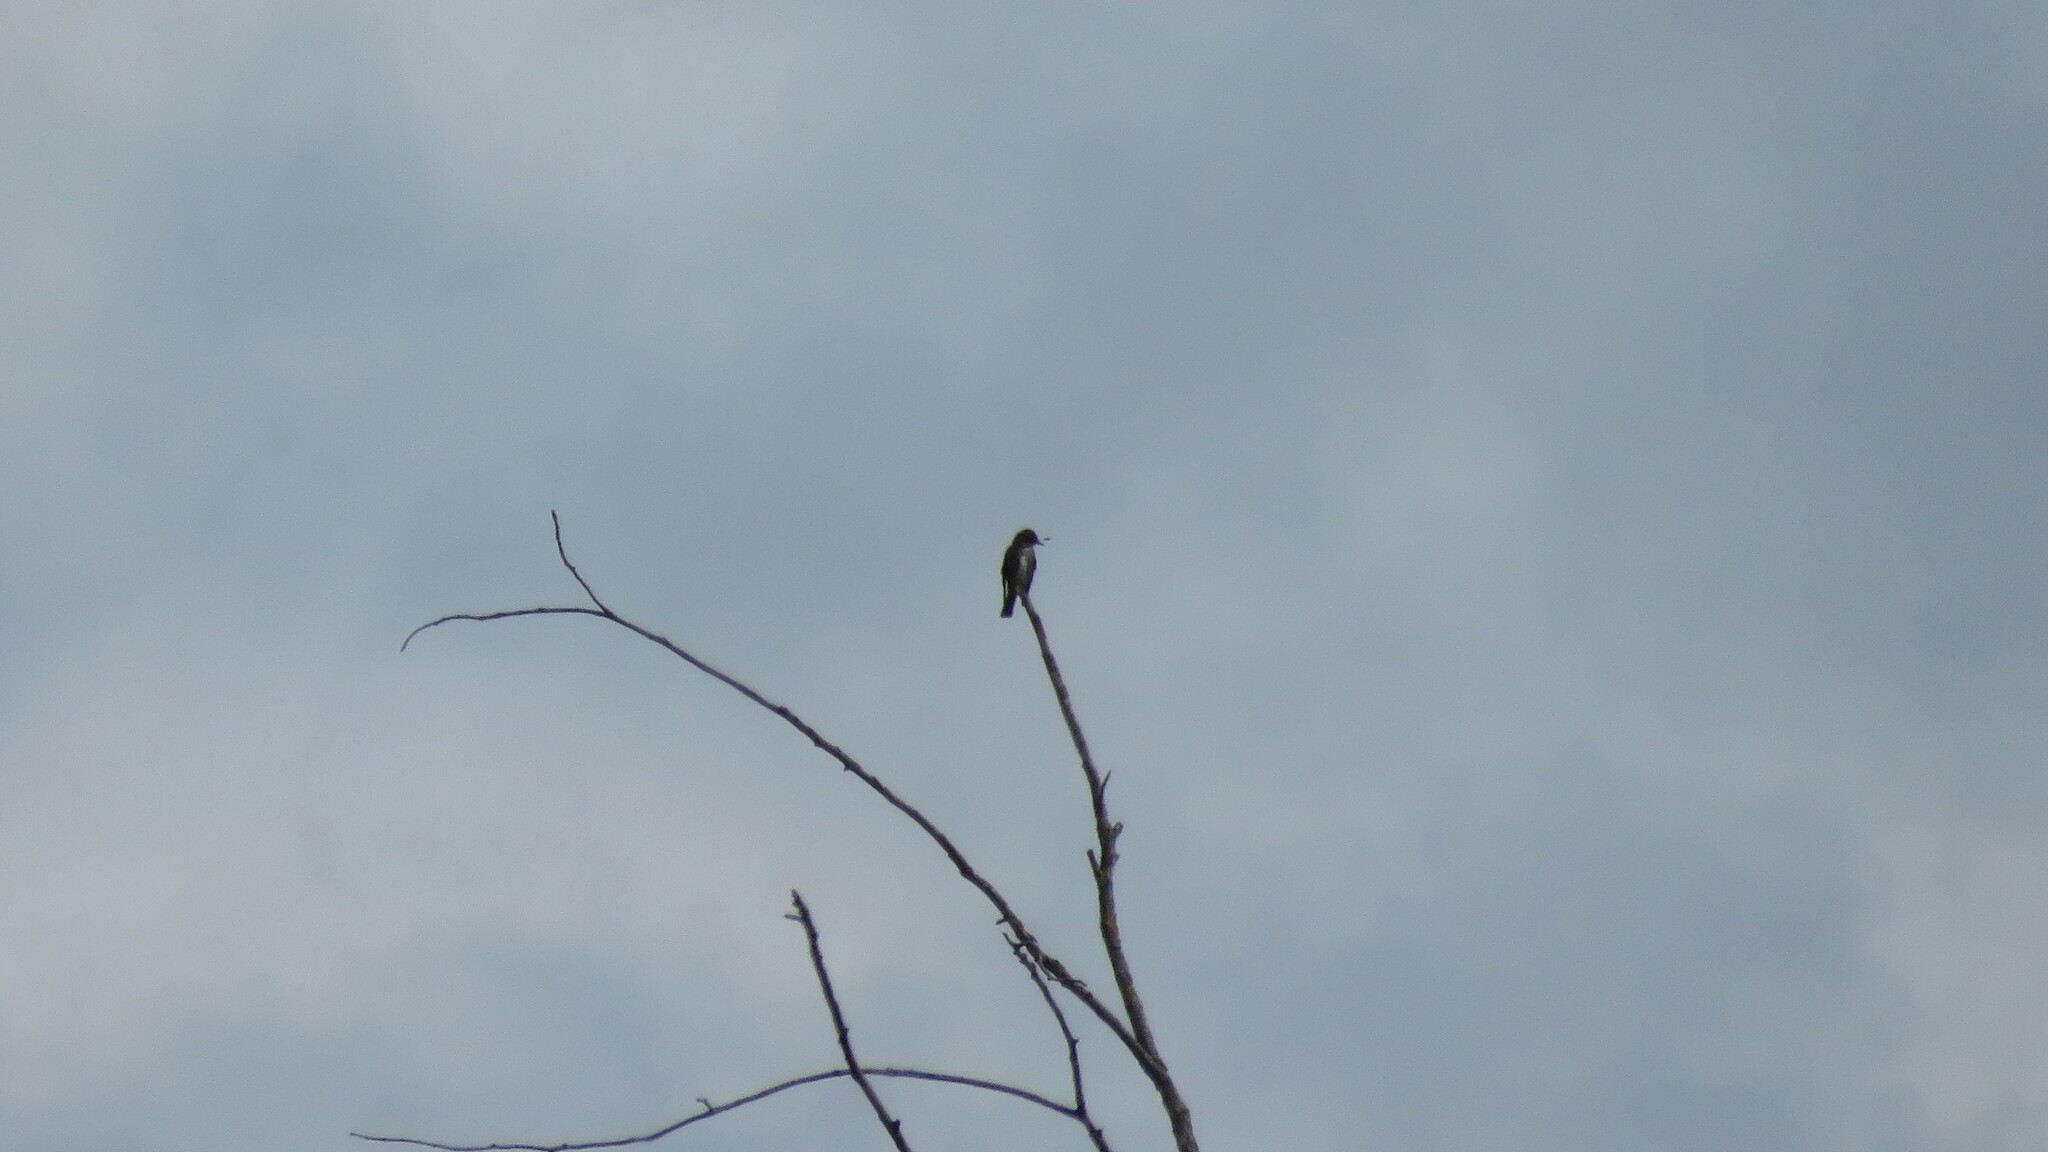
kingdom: Animalia
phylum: Chordata
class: Aves
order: Passeriformes
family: Tyrannidae
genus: Contopus
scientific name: Contopus cooperi
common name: Olive-sided flycatcher
